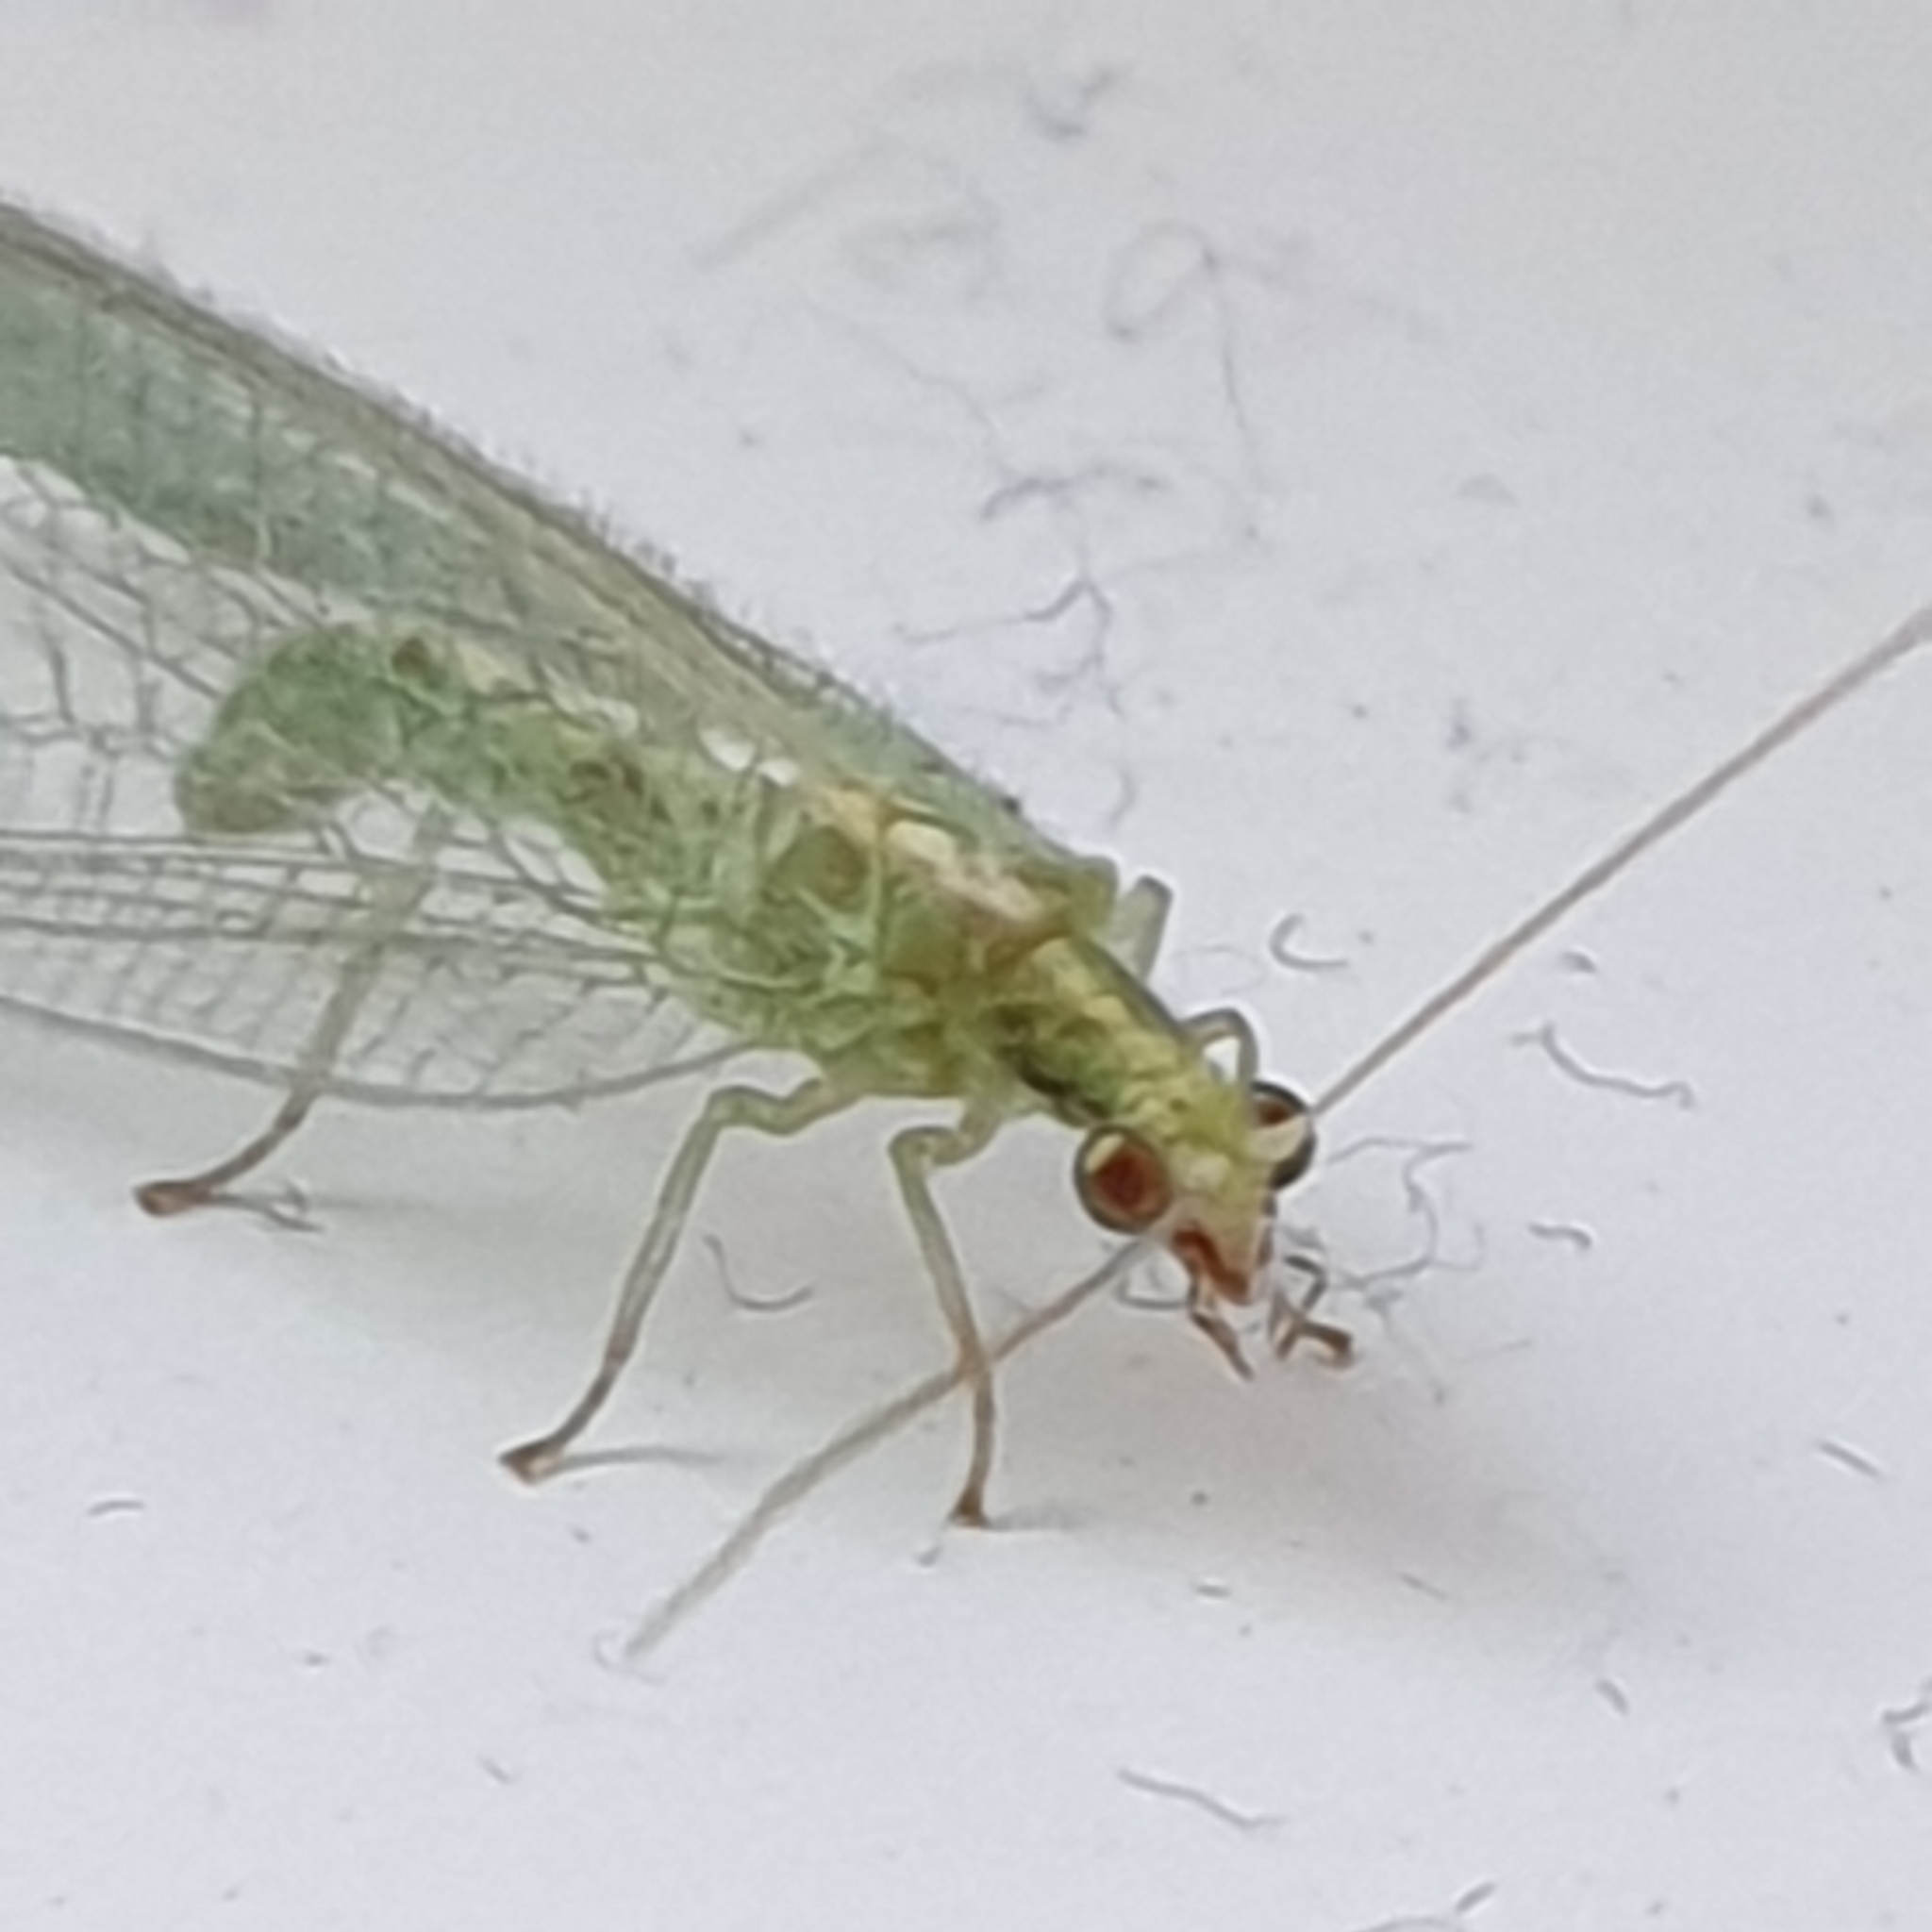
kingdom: Animalia
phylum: Arthropoda
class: Insecta
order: Neuroptera
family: Chrysopidae
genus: Chrysoperla
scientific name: Chrysoperla
